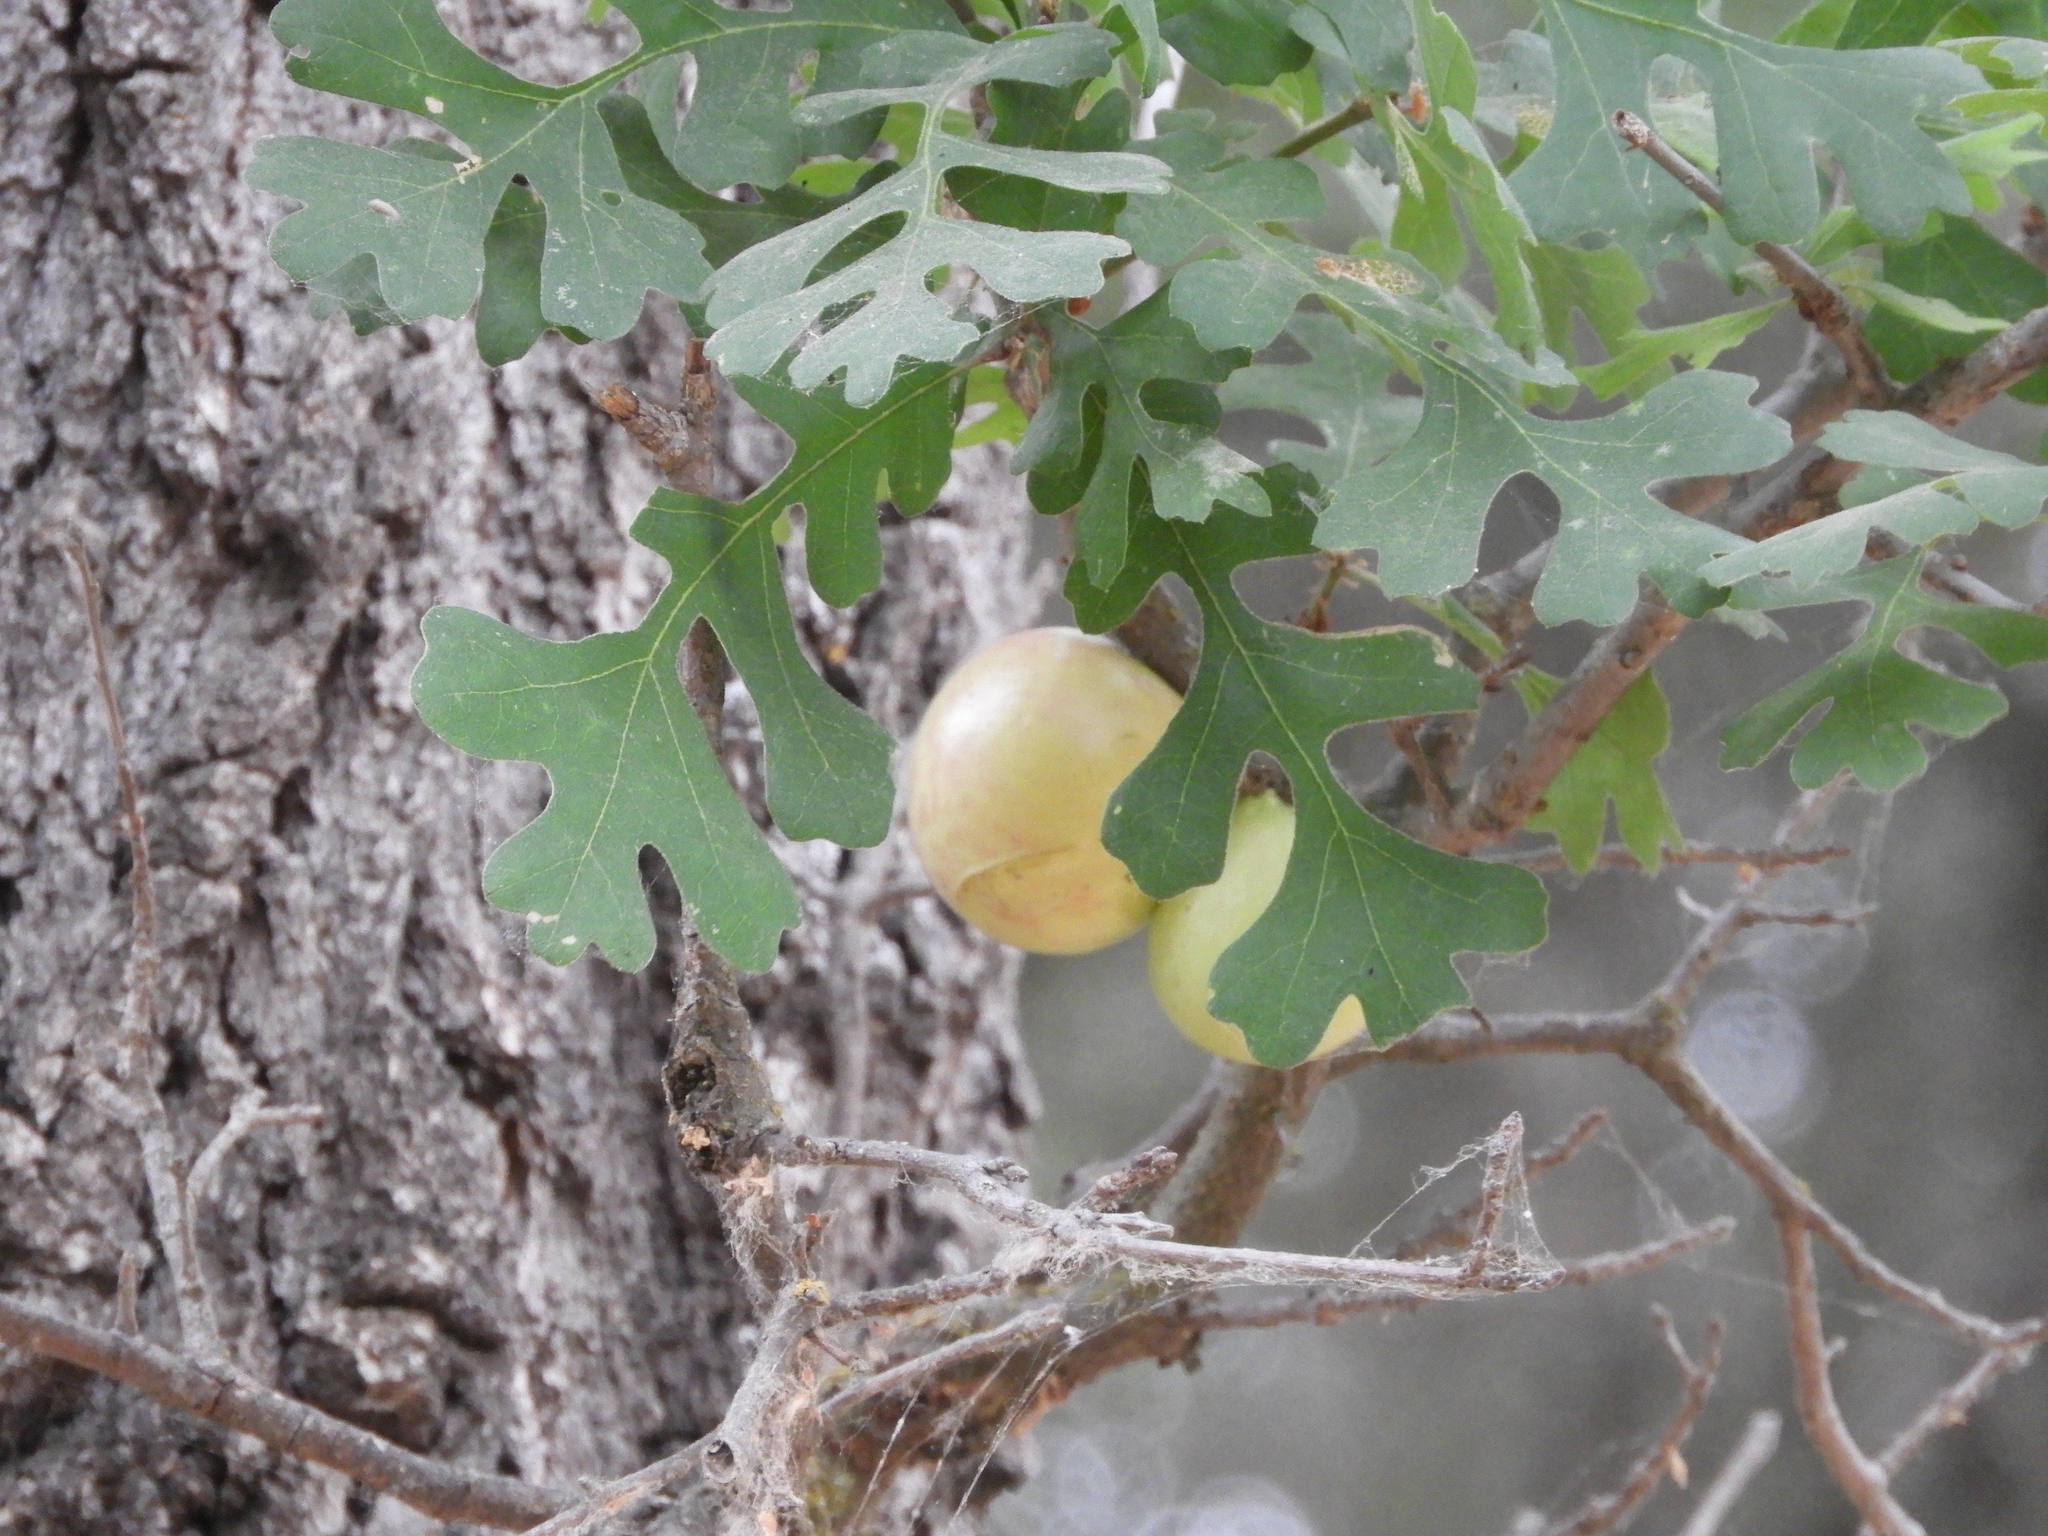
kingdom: Animalia
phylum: Arthropoda
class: Insecta
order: Hymenoptera
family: Cynipidae
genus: Andricus
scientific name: Andricus quercuscalifornicus
